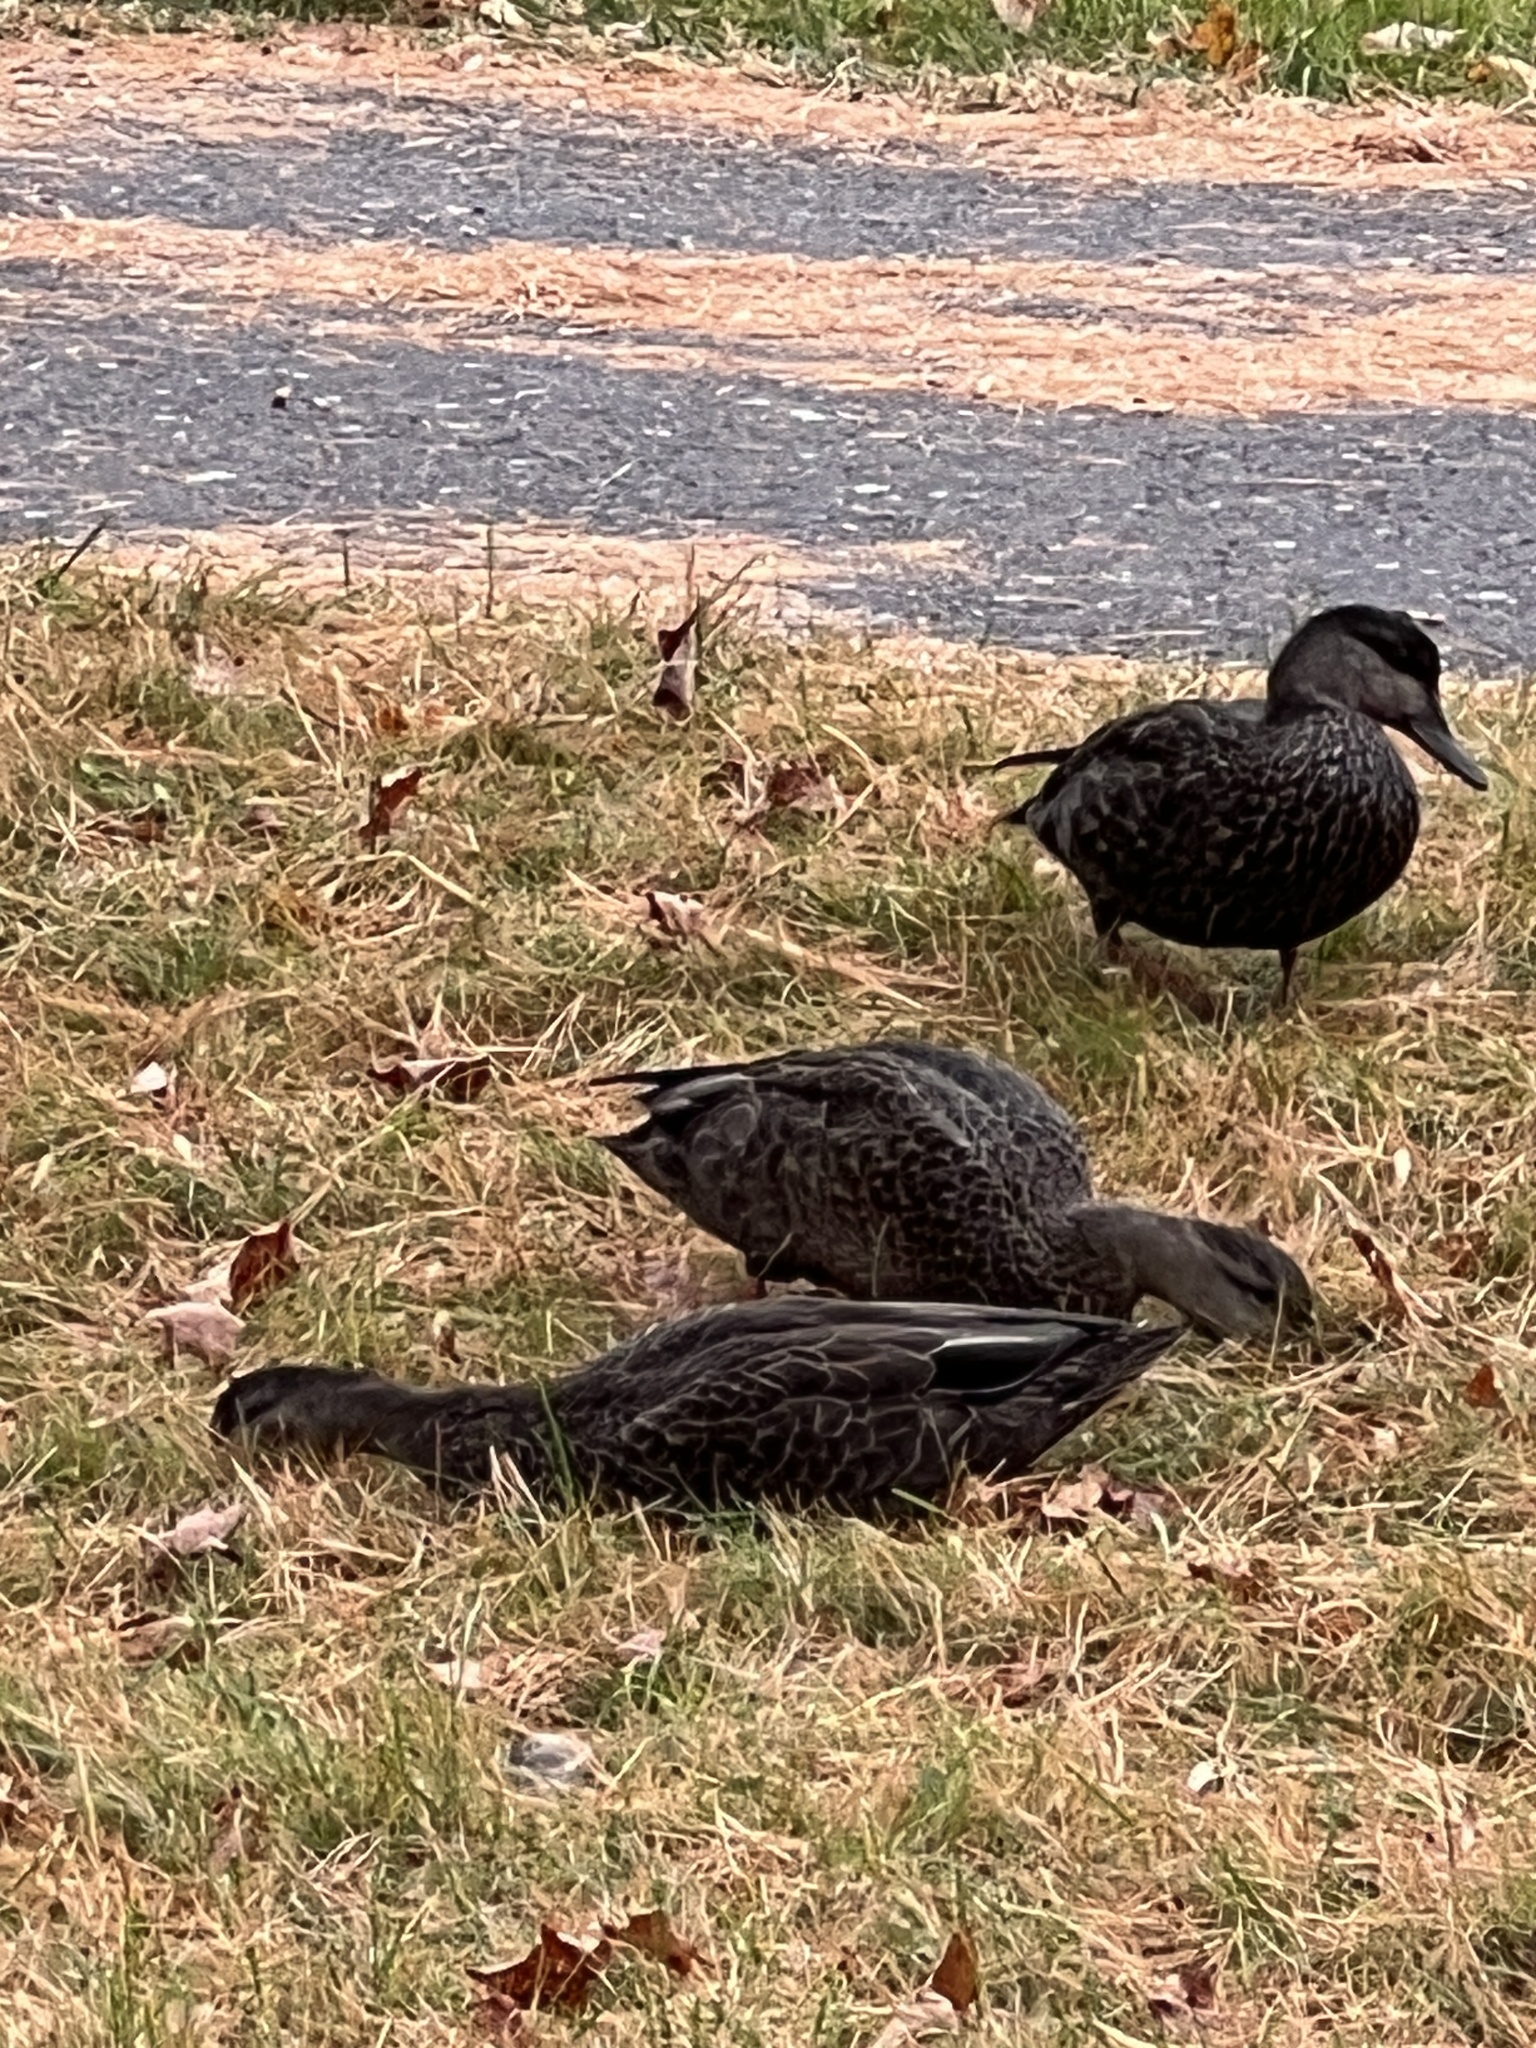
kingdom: Animalia
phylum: Chordata
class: Aves
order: Anseriformes
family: Anatidae
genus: Anas
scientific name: Anas rubripes
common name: American black duck
